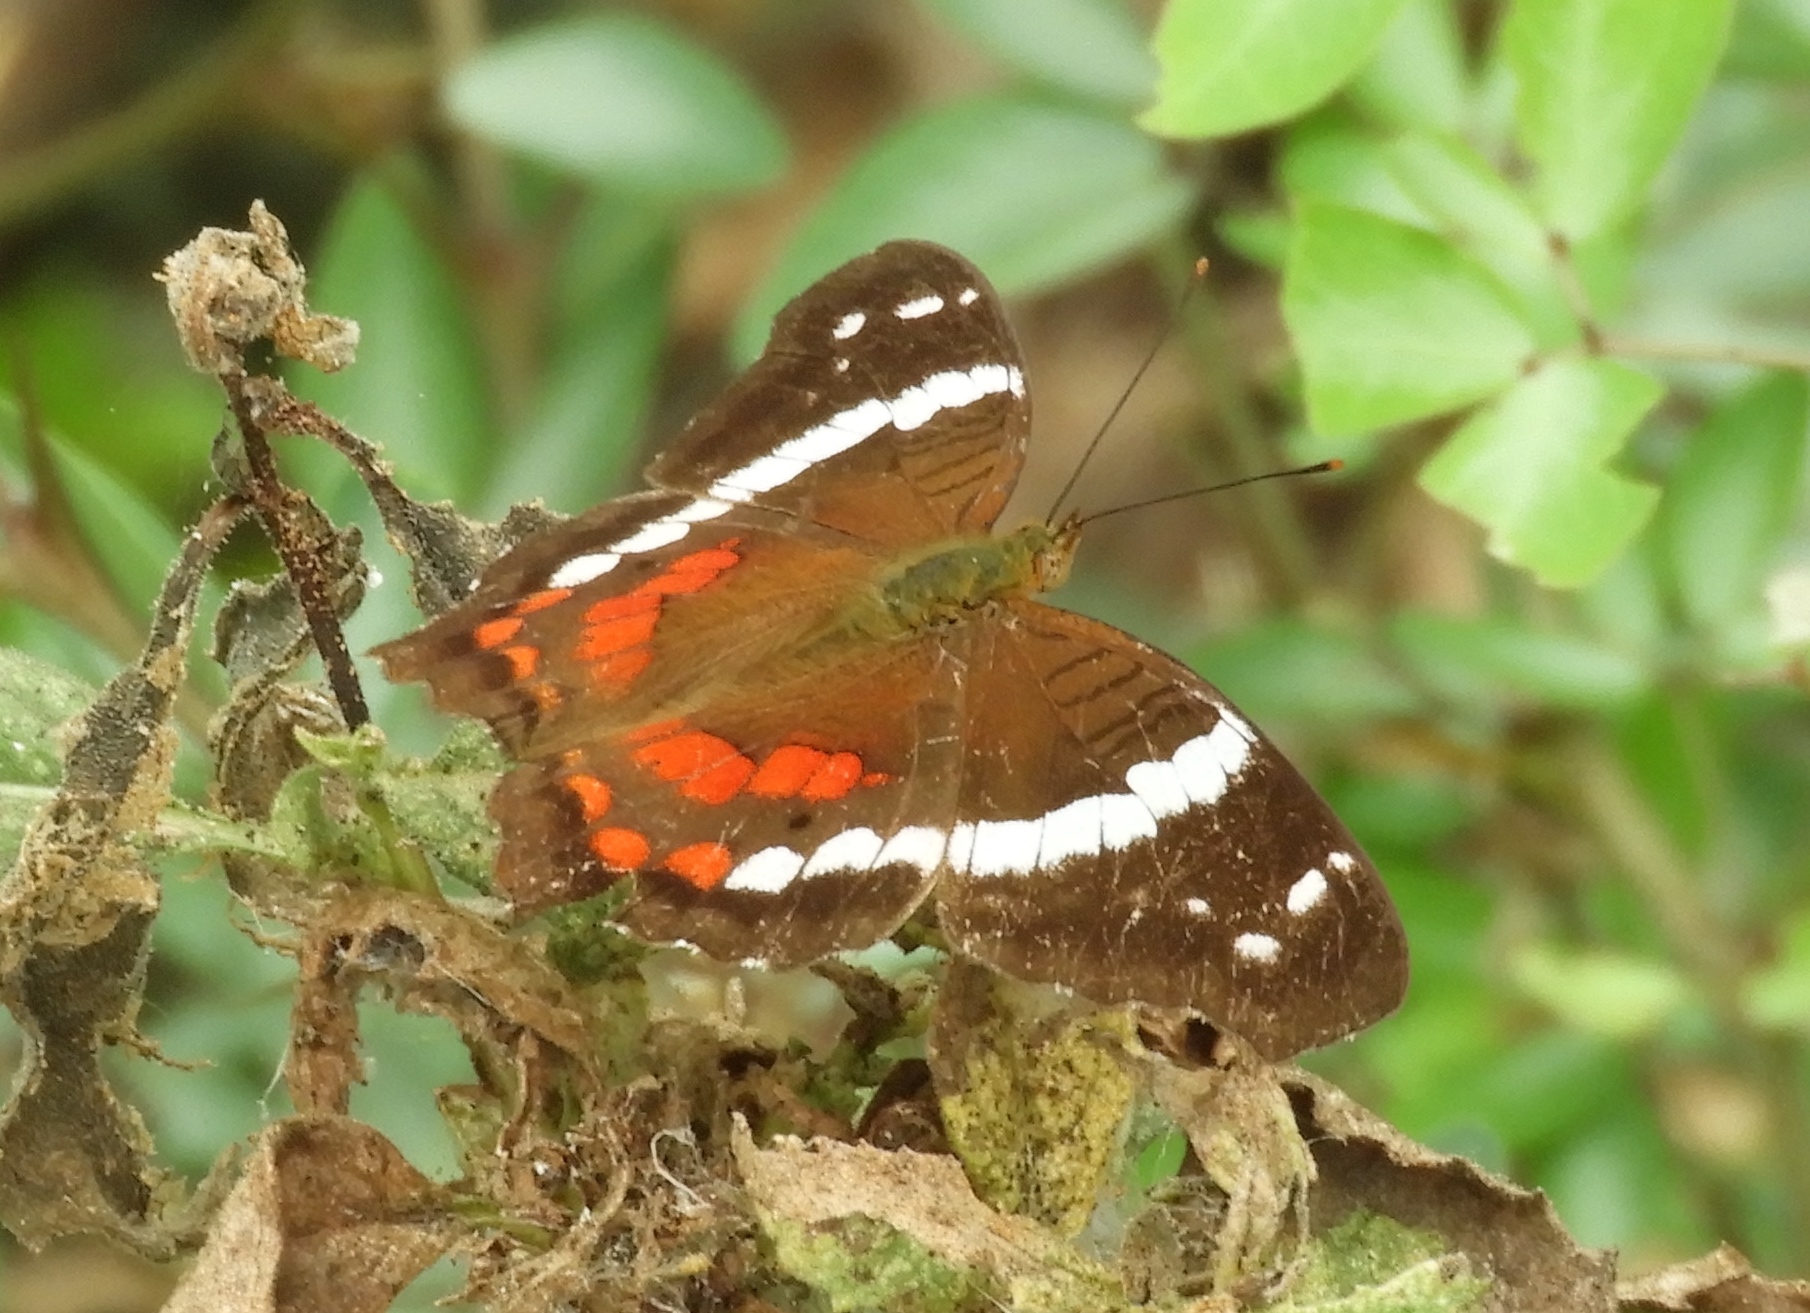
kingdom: Animalia
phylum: Arthropoda
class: Insecta
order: Lepidoptera
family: Nymphalidae
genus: Anartia
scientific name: Anartia fatima
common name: Banded peacock
